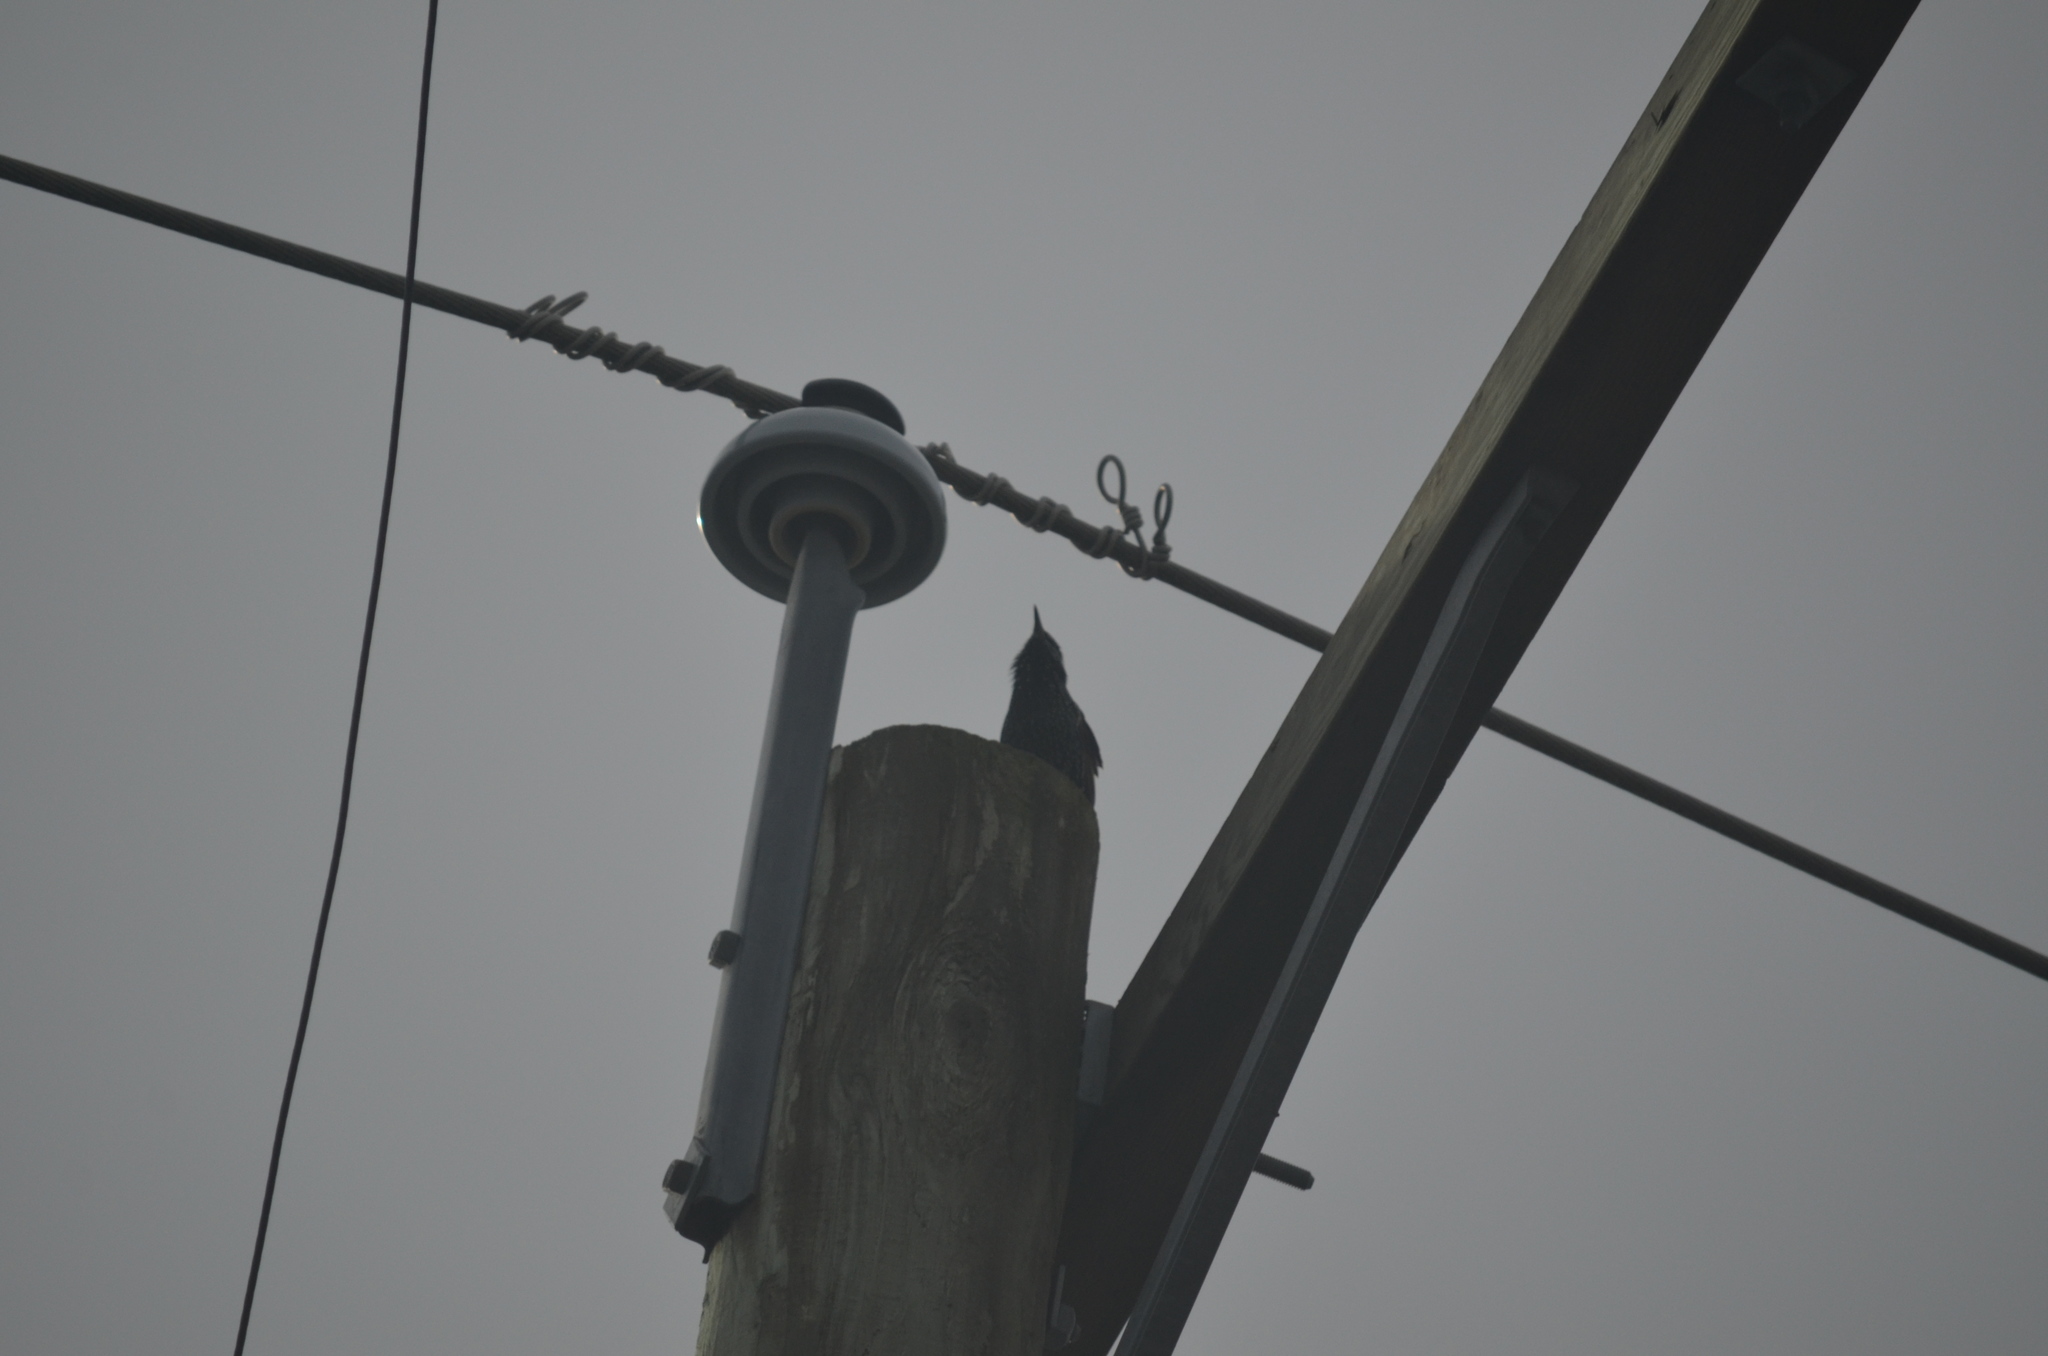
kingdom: Animalia
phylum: Chordata
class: Aves
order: Passeriformes
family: Sturnidae
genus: Sturnus
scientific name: Sturnus vulgaris
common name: Common starling
